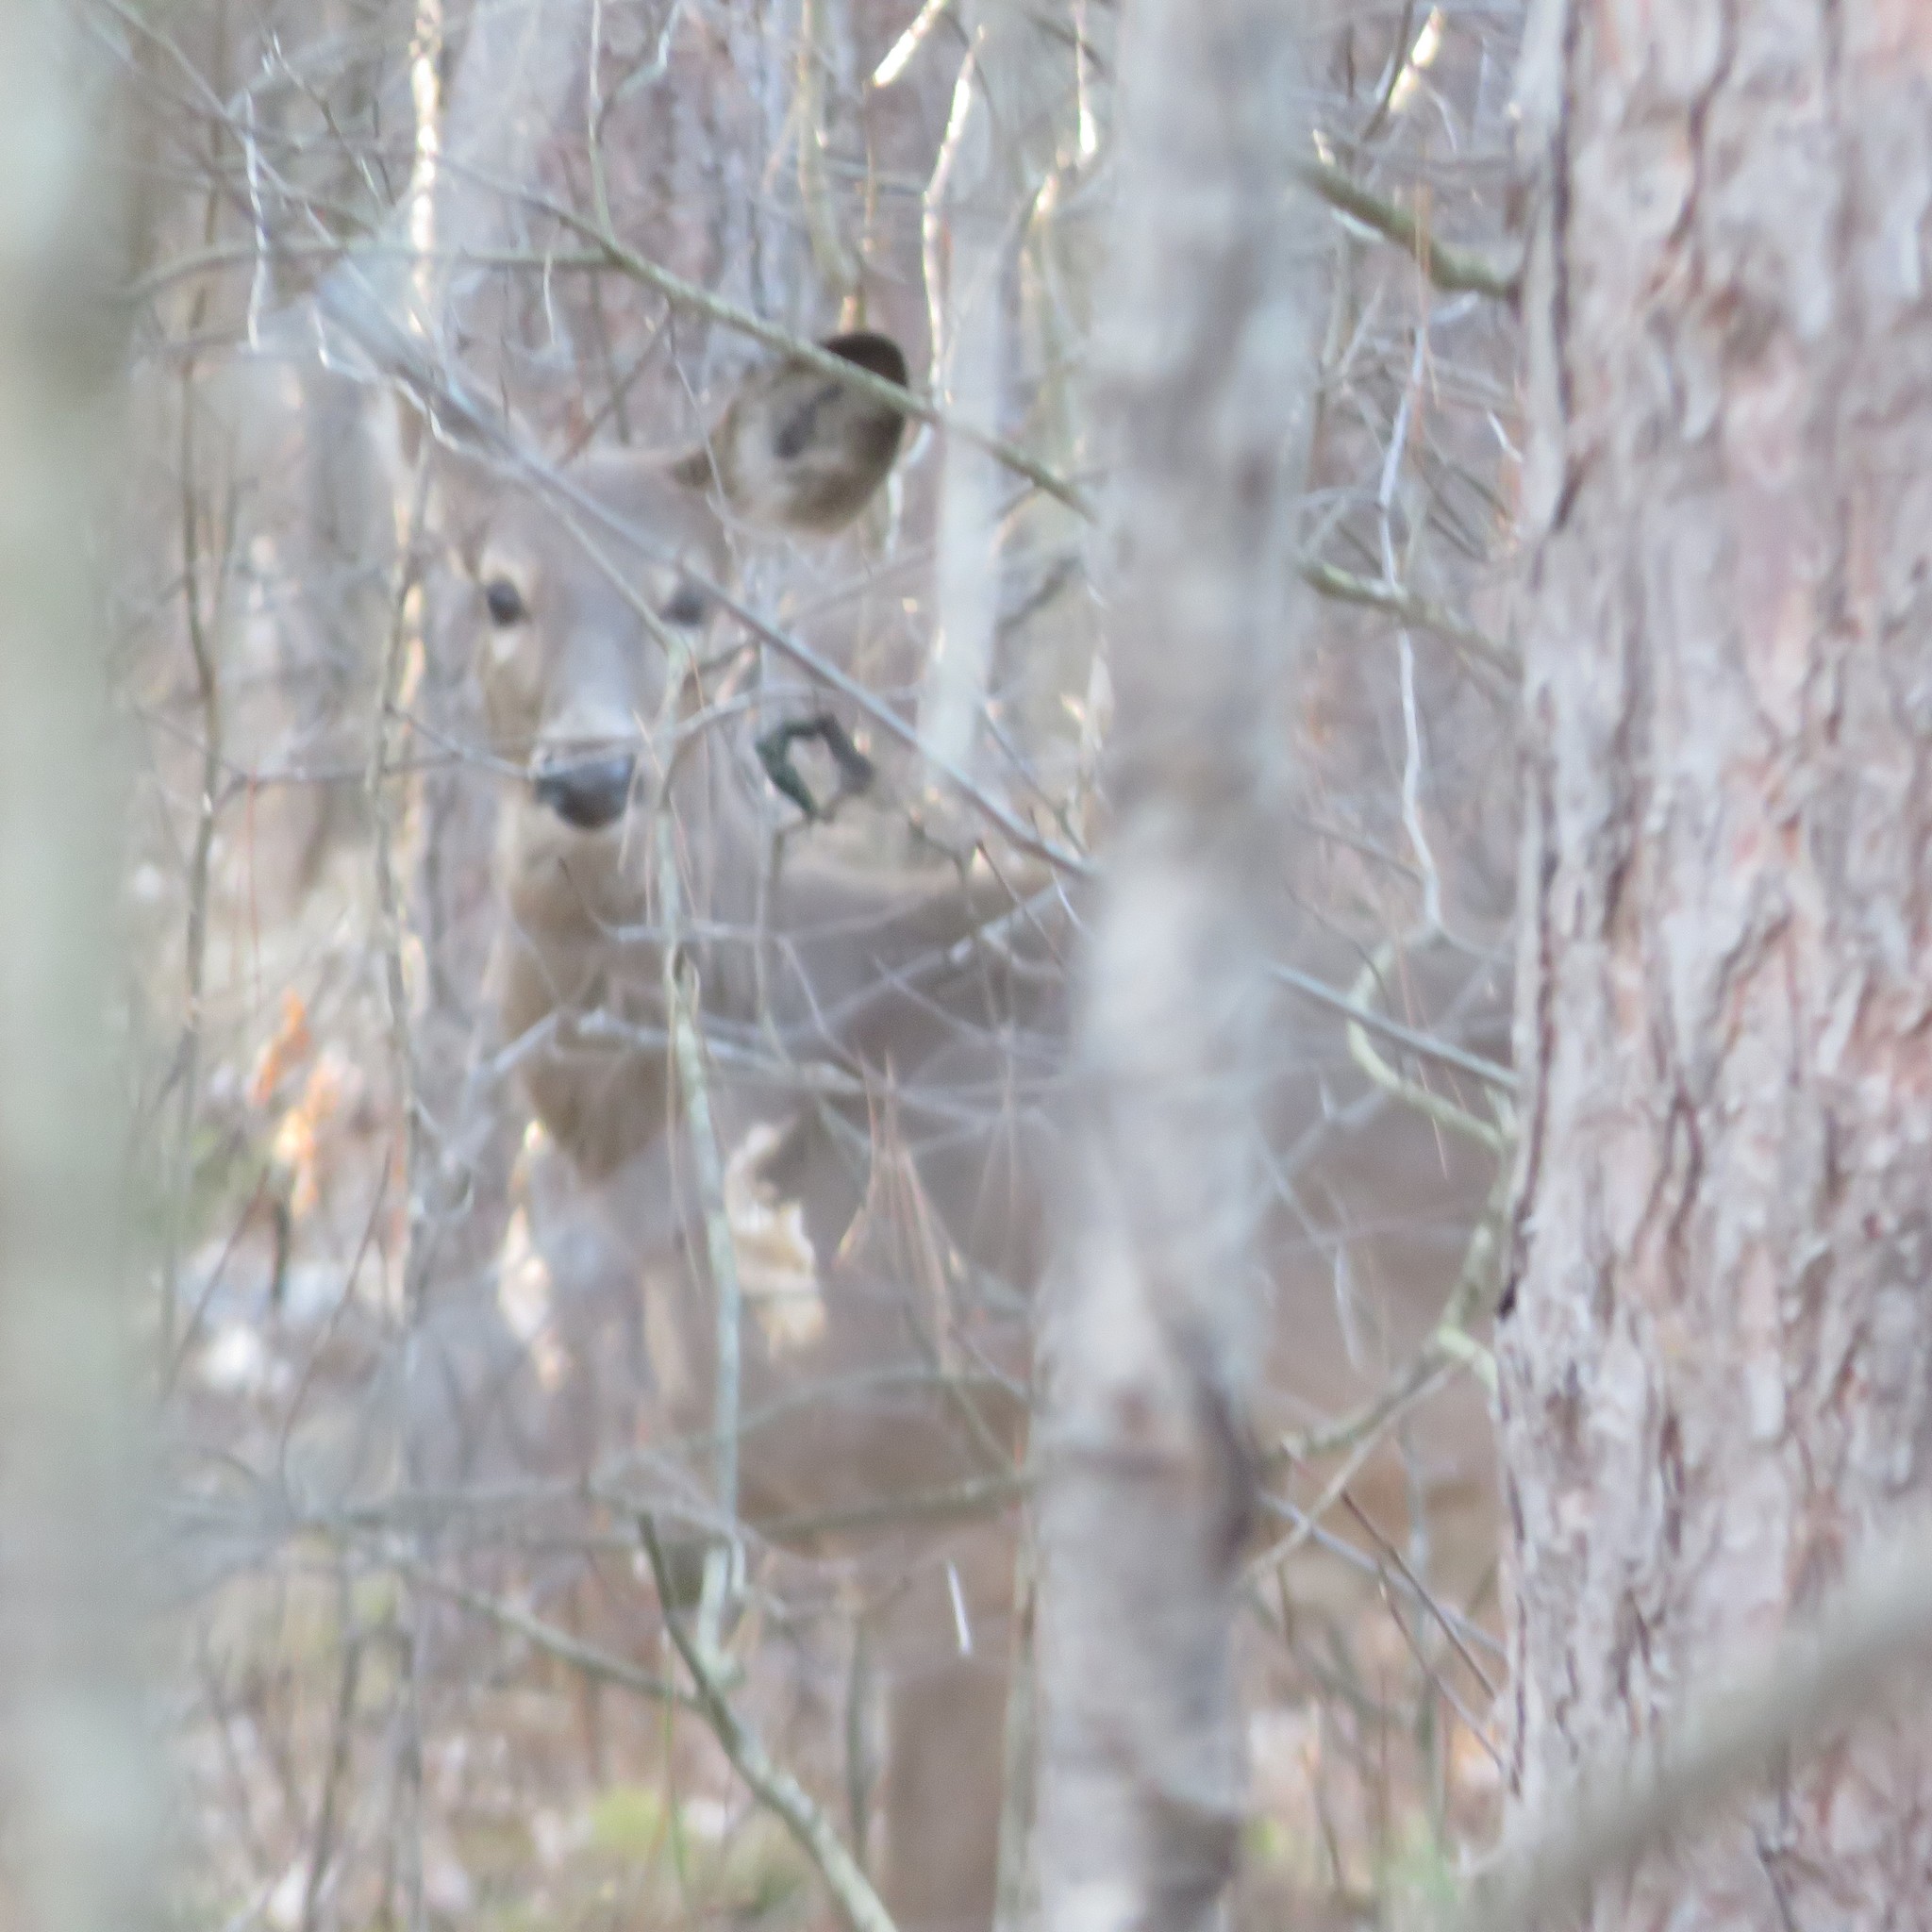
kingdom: Animalia
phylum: Chordata
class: Mammalia
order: Artiodactyla
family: Cervidae
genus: Odocoileus
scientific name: Odocoileus virginianus
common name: White-tailed deer
